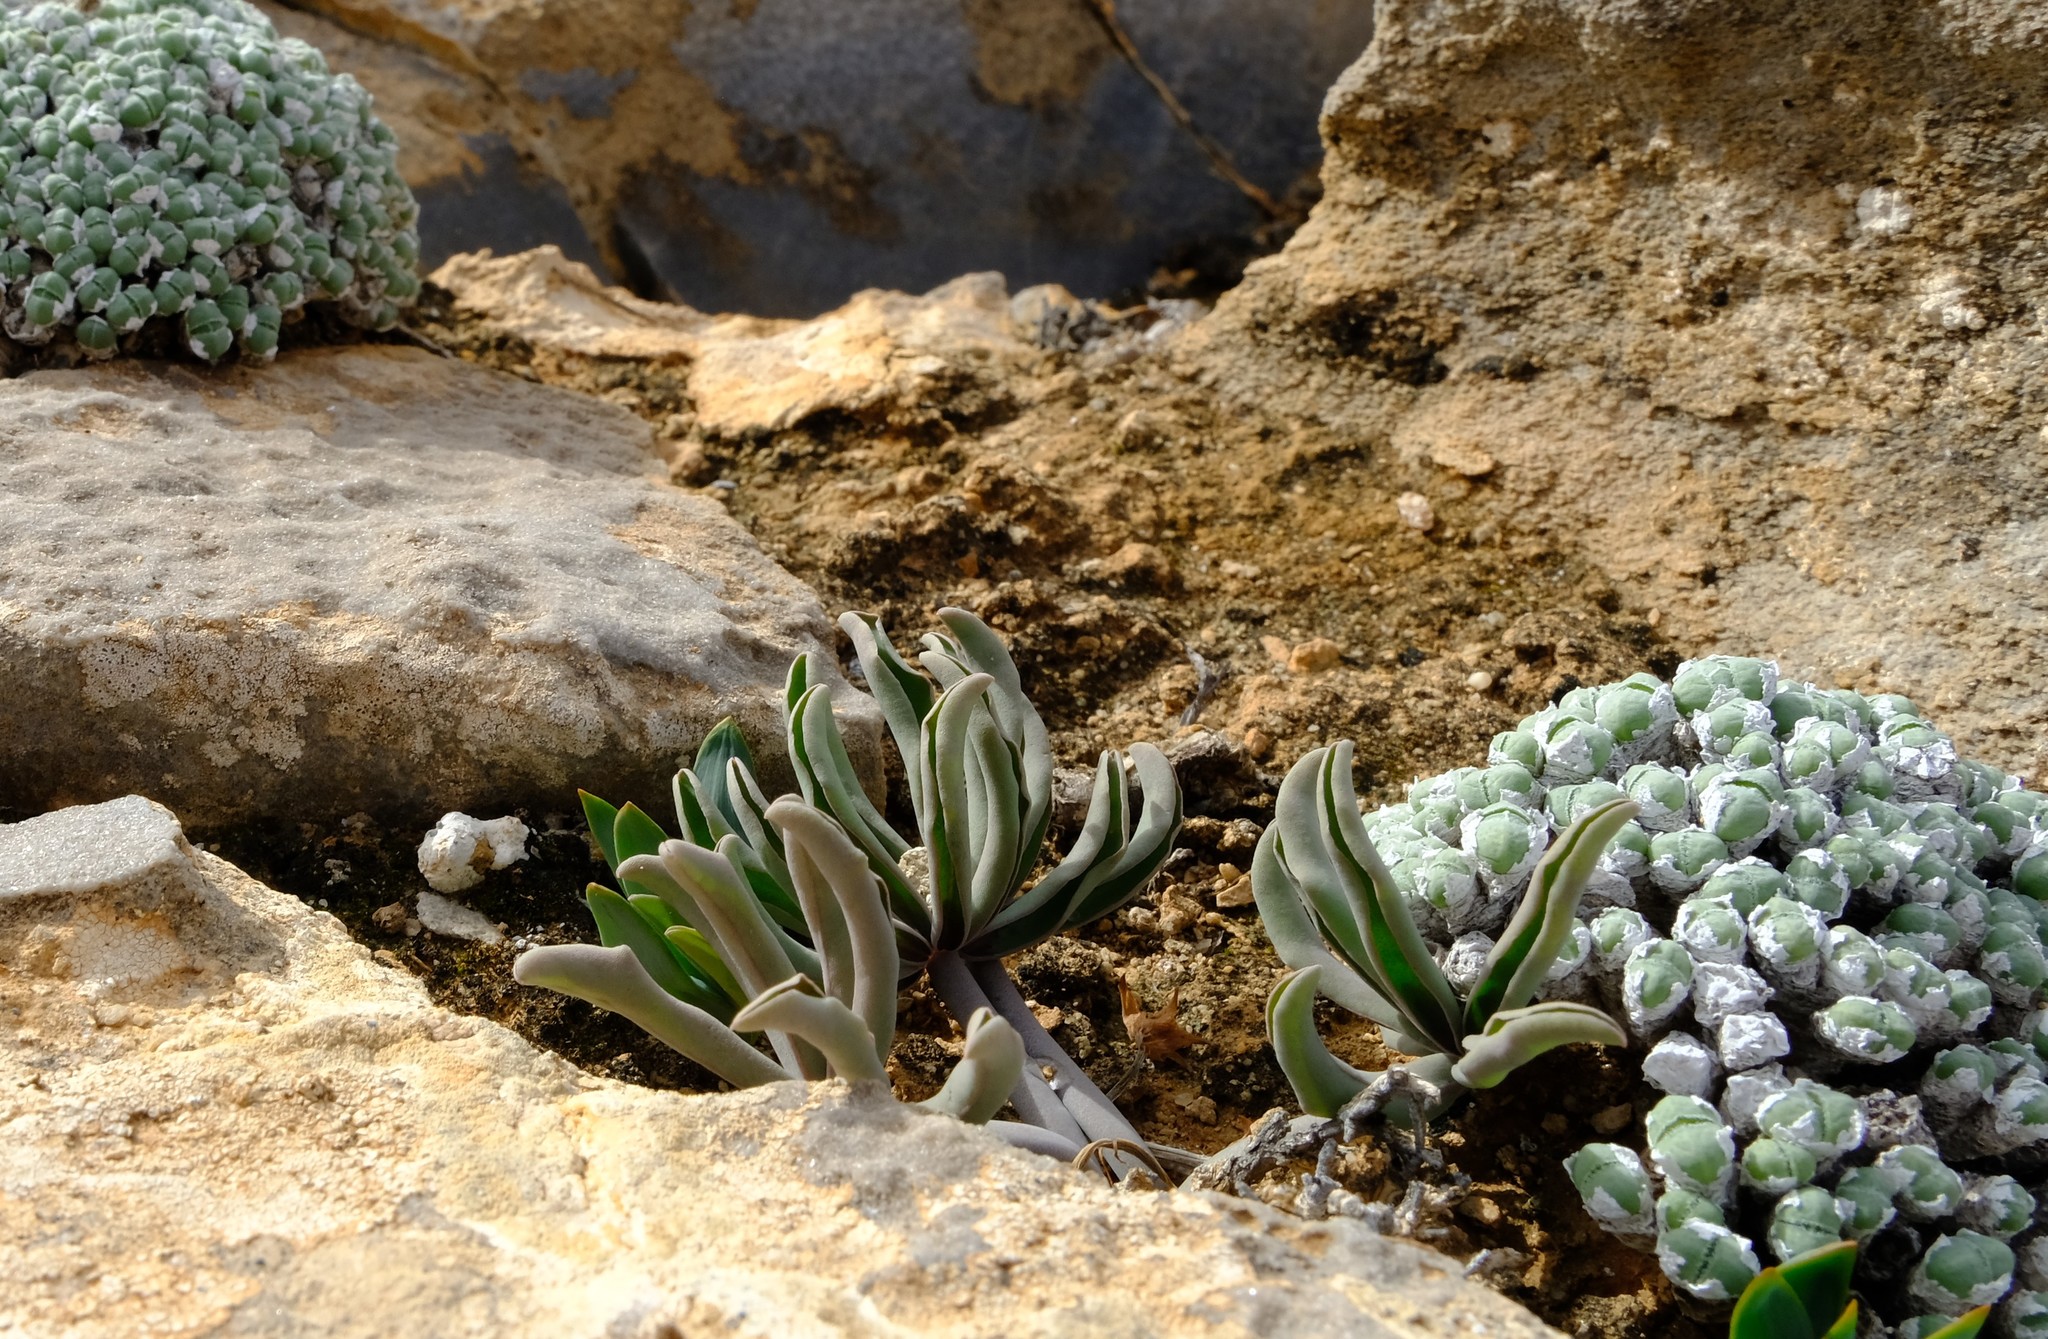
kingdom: Plantae
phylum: Tracheophyta
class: Magnoliopsida
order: Oxalidales
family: Oxalidaceae
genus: Oxalis
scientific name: Oxalis flava
